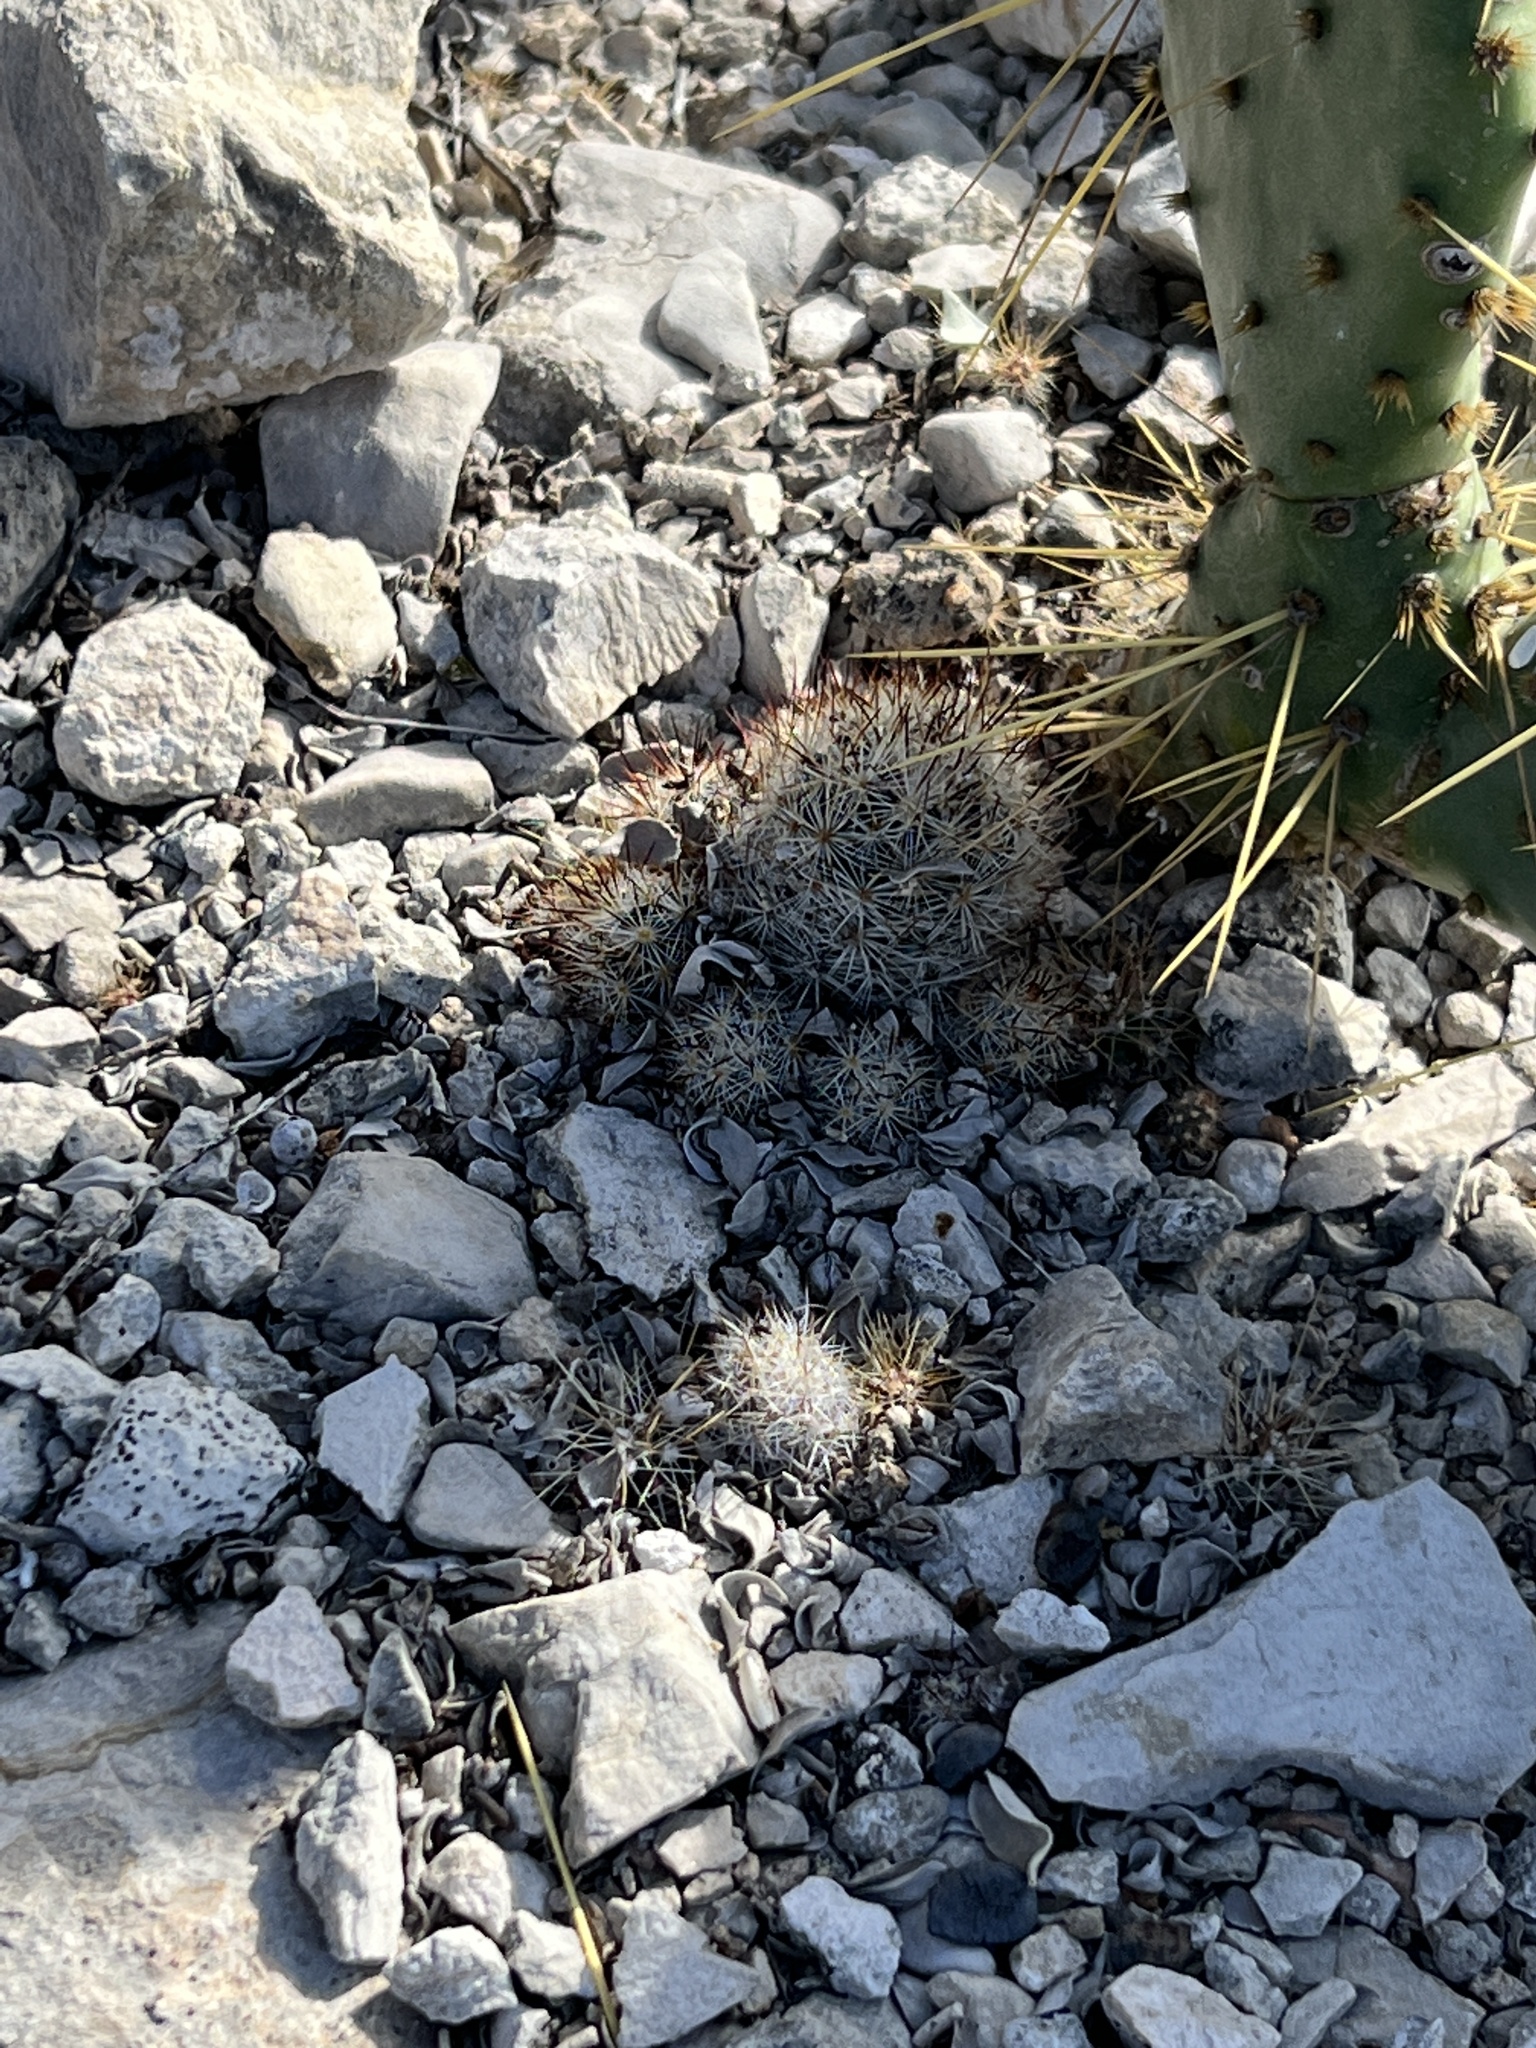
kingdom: Plantae
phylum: Tracheophyta
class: Magnoliopsida
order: Caryophyllales
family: Cactaceae
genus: Pelecyphora
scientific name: Pelecyphora emskoetteriana
